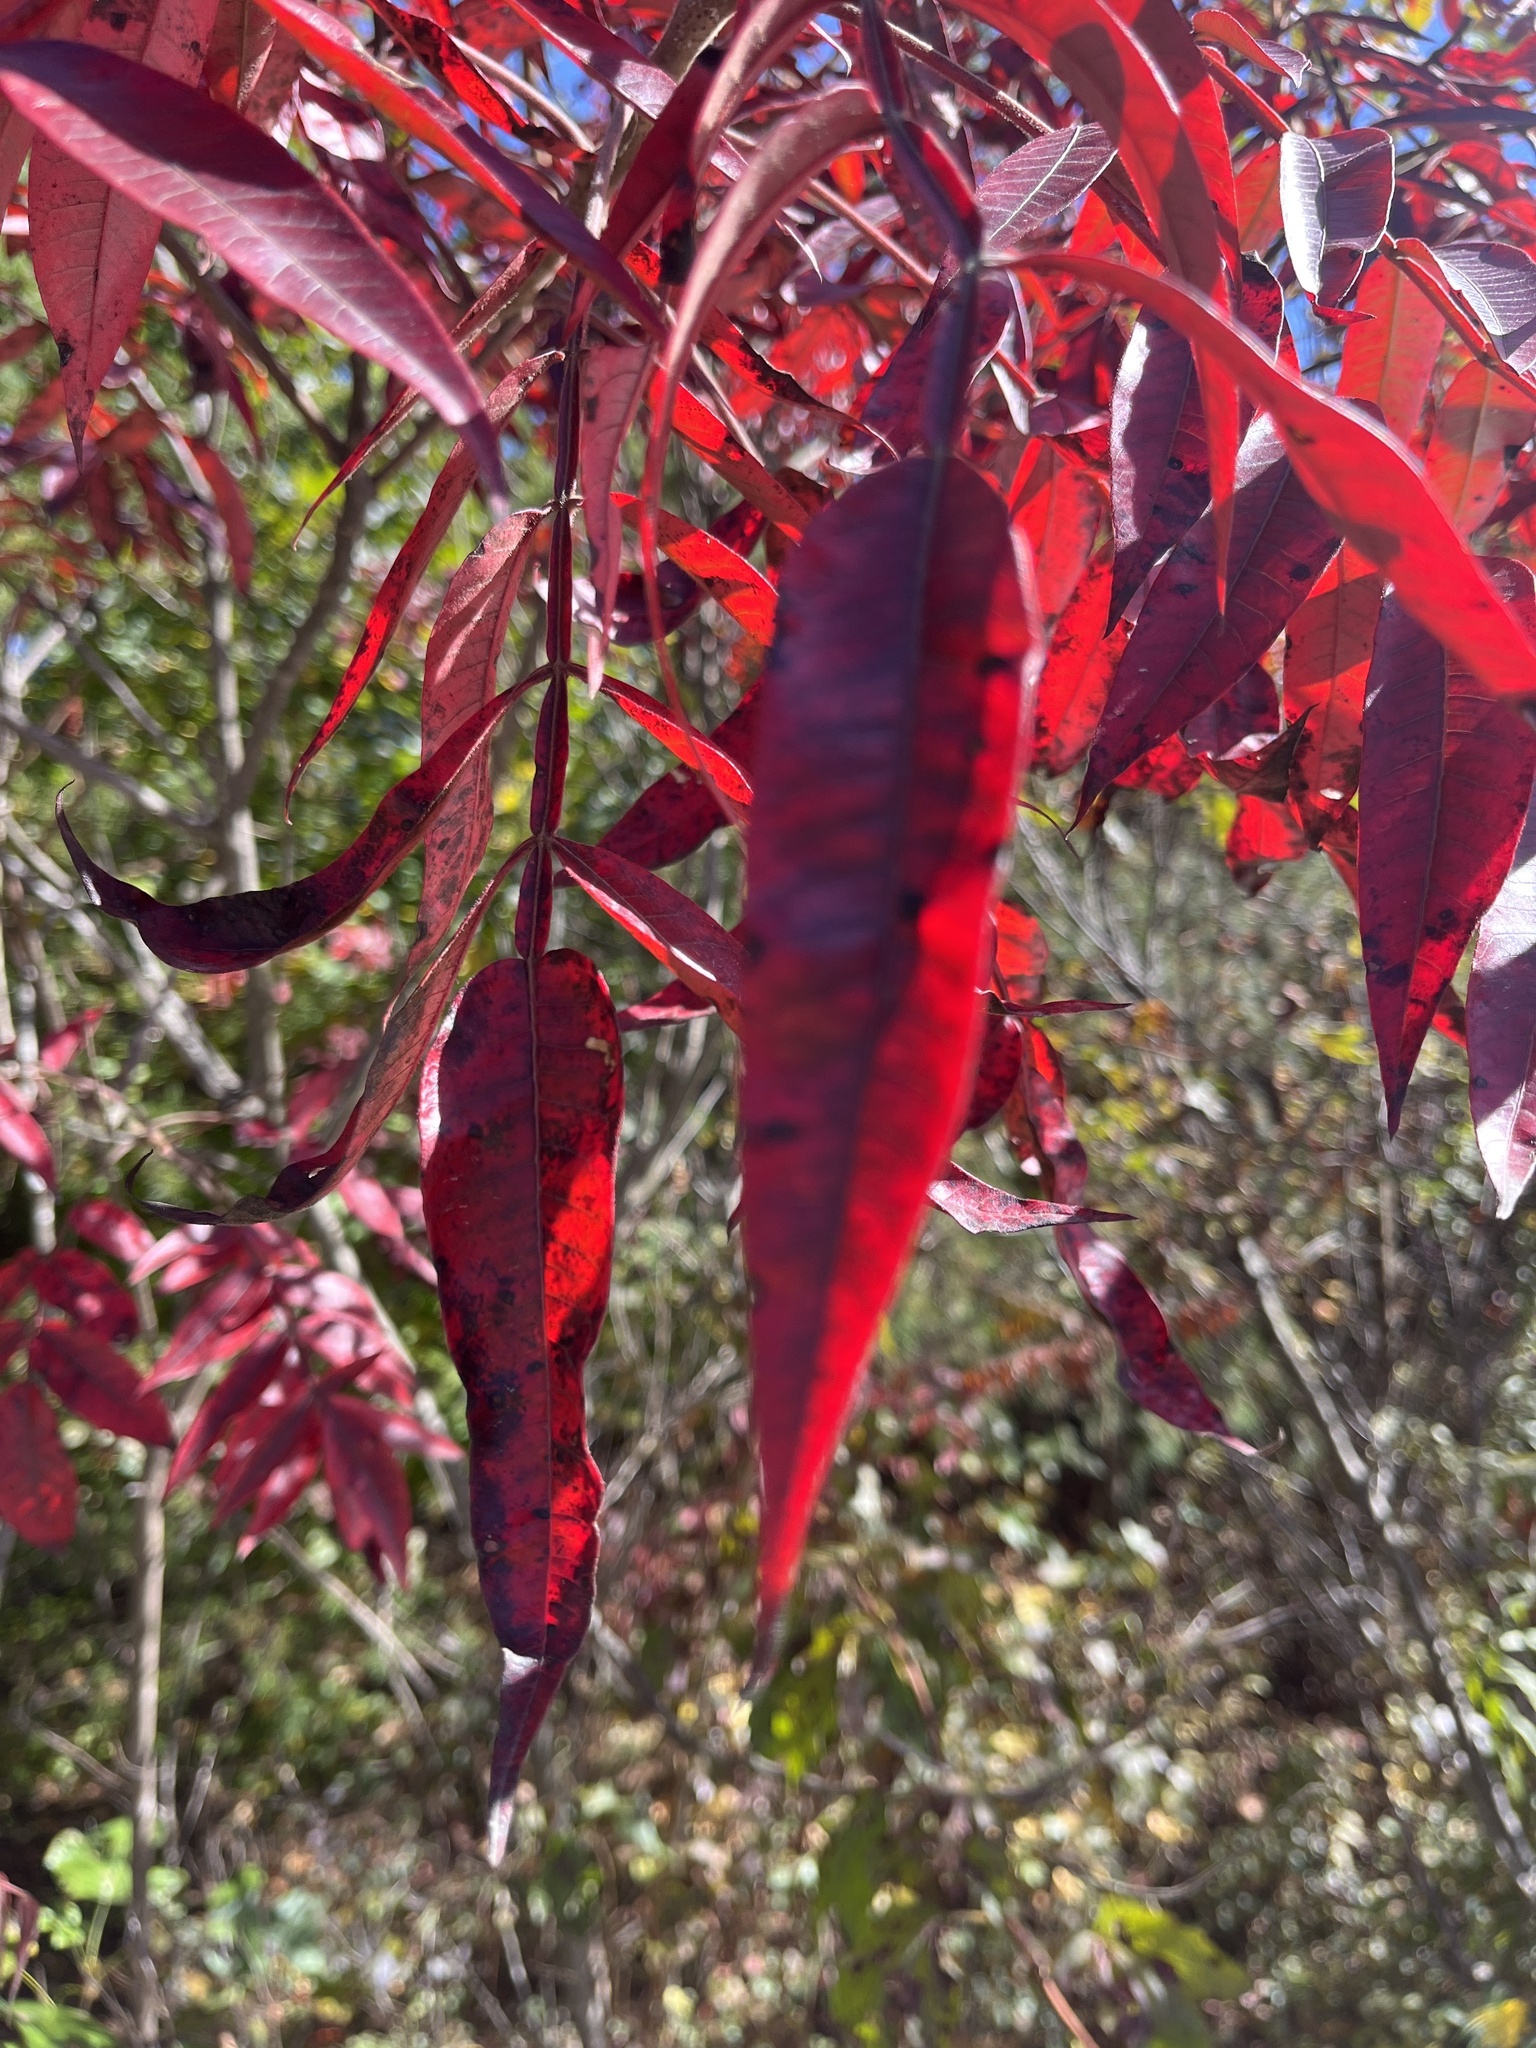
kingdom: Plantae
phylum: Tracheophyta
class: Magnoliopsida
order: Sapindales
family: Anacardiaceae
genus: Rhus
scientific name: Rhus copallina
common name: Shining sumac
